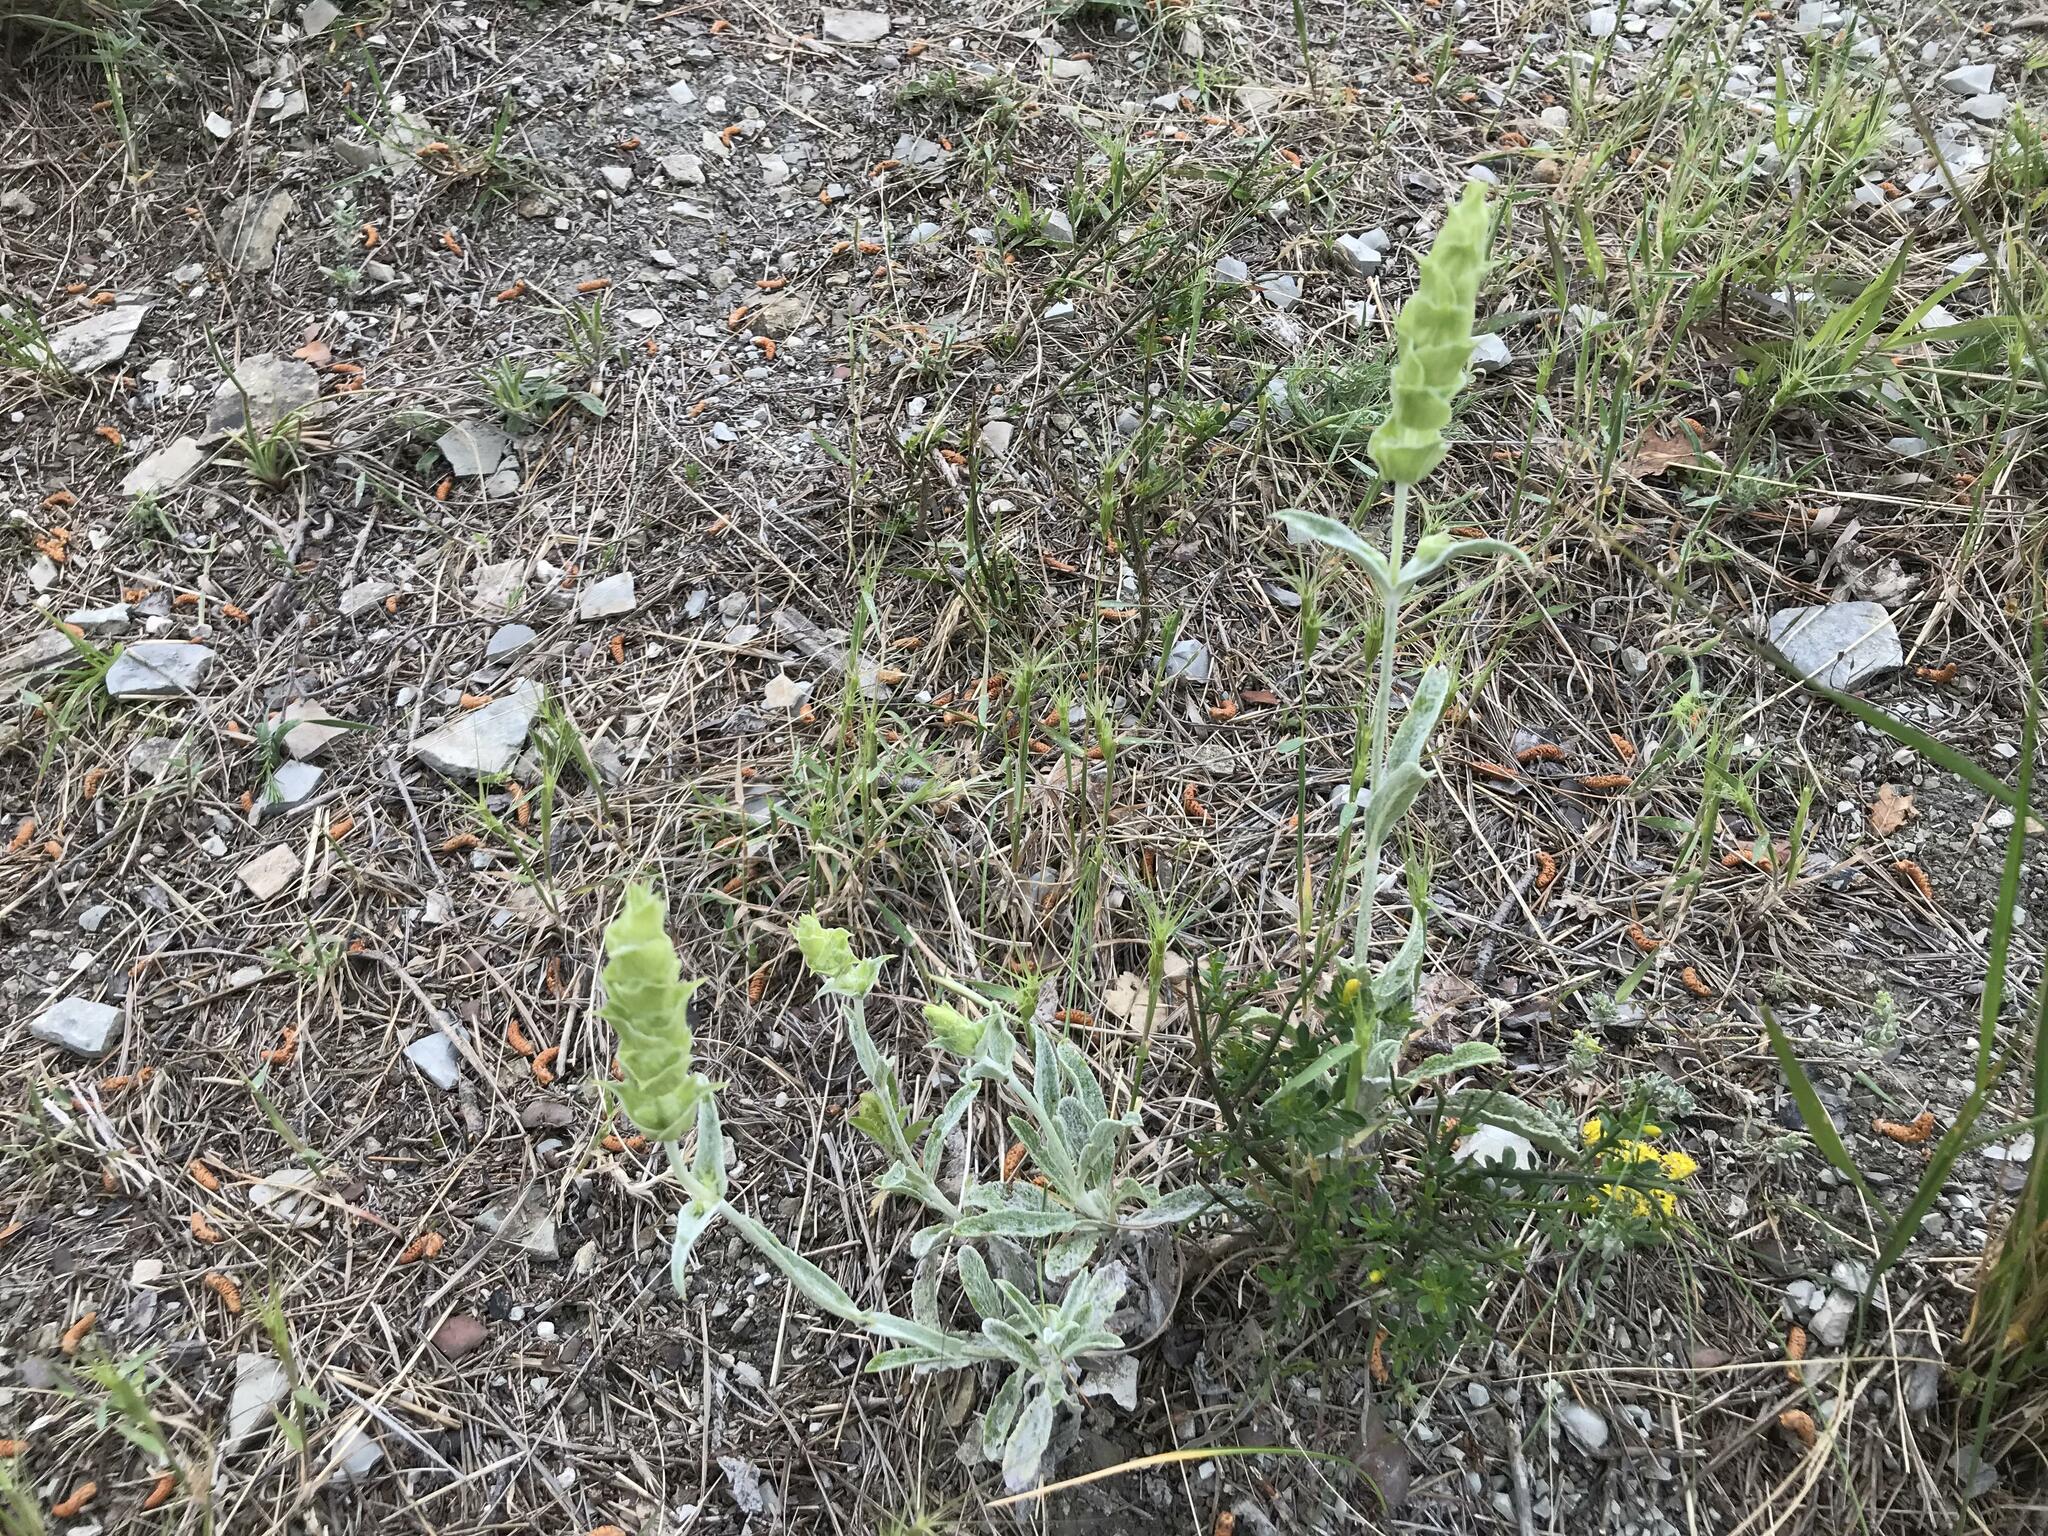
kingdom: Plantae
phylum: Tracheophyta
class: Magnoliopsida
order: Lamiales
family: Lamiaceae
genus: Sideritis
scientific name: Sideritis euxina
